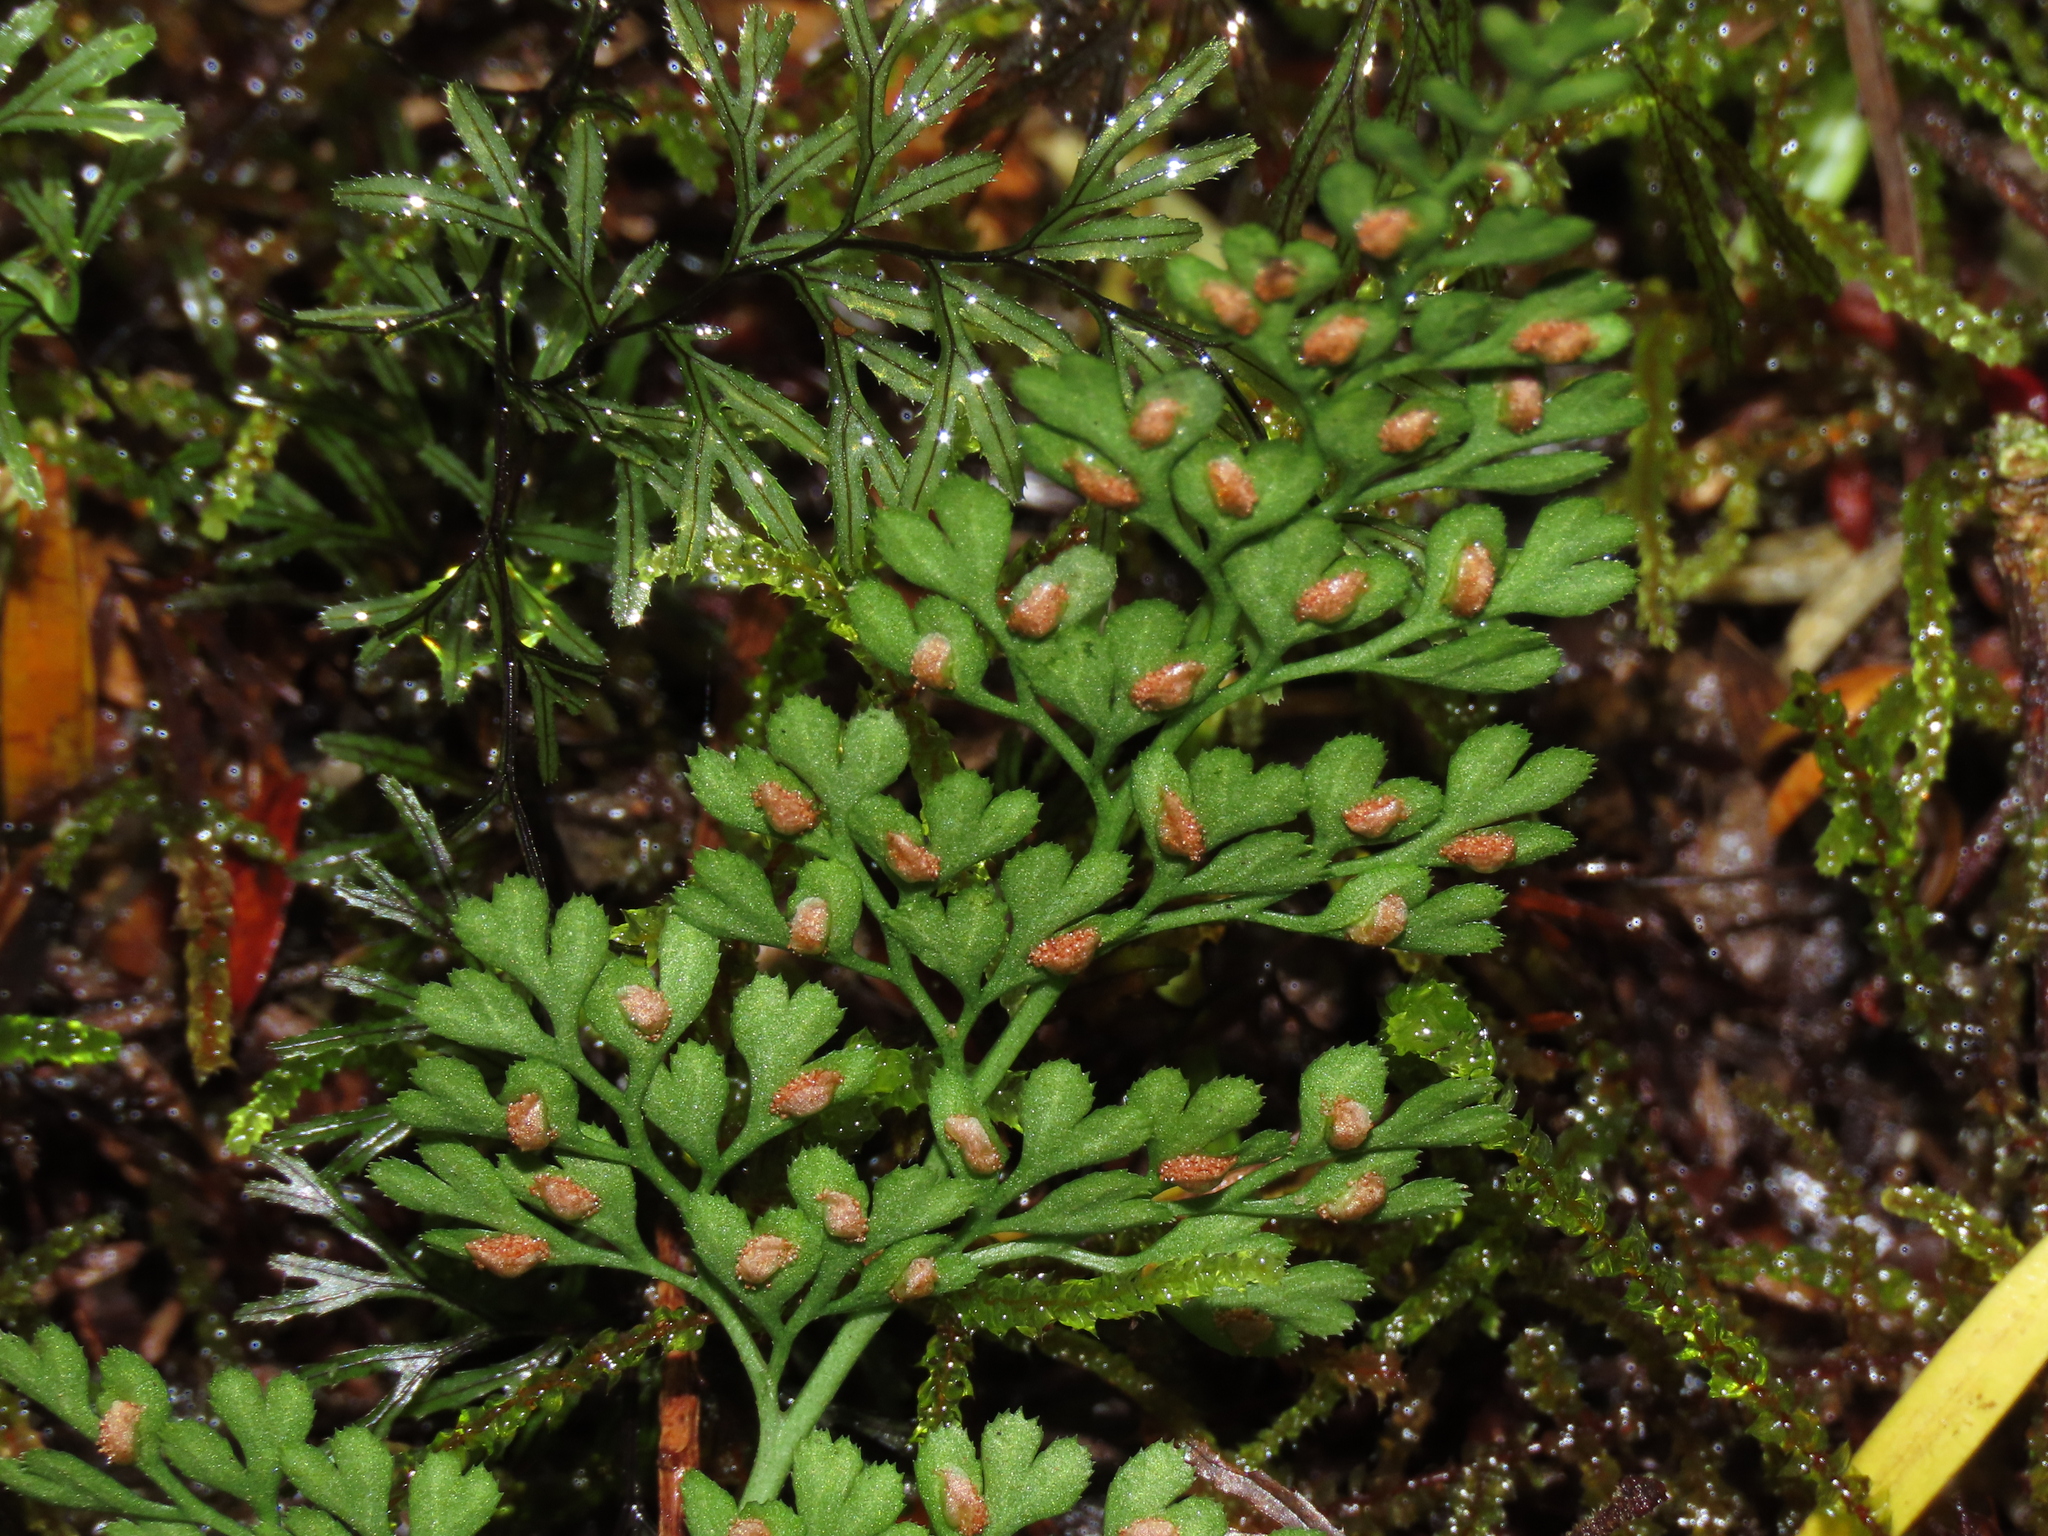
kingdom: Plantae
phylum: Tracheophyta
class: Polypodiopsida
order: Polypodiales
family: Aspleniaceae
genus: Asplenium
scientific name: Asplenium dareoides
